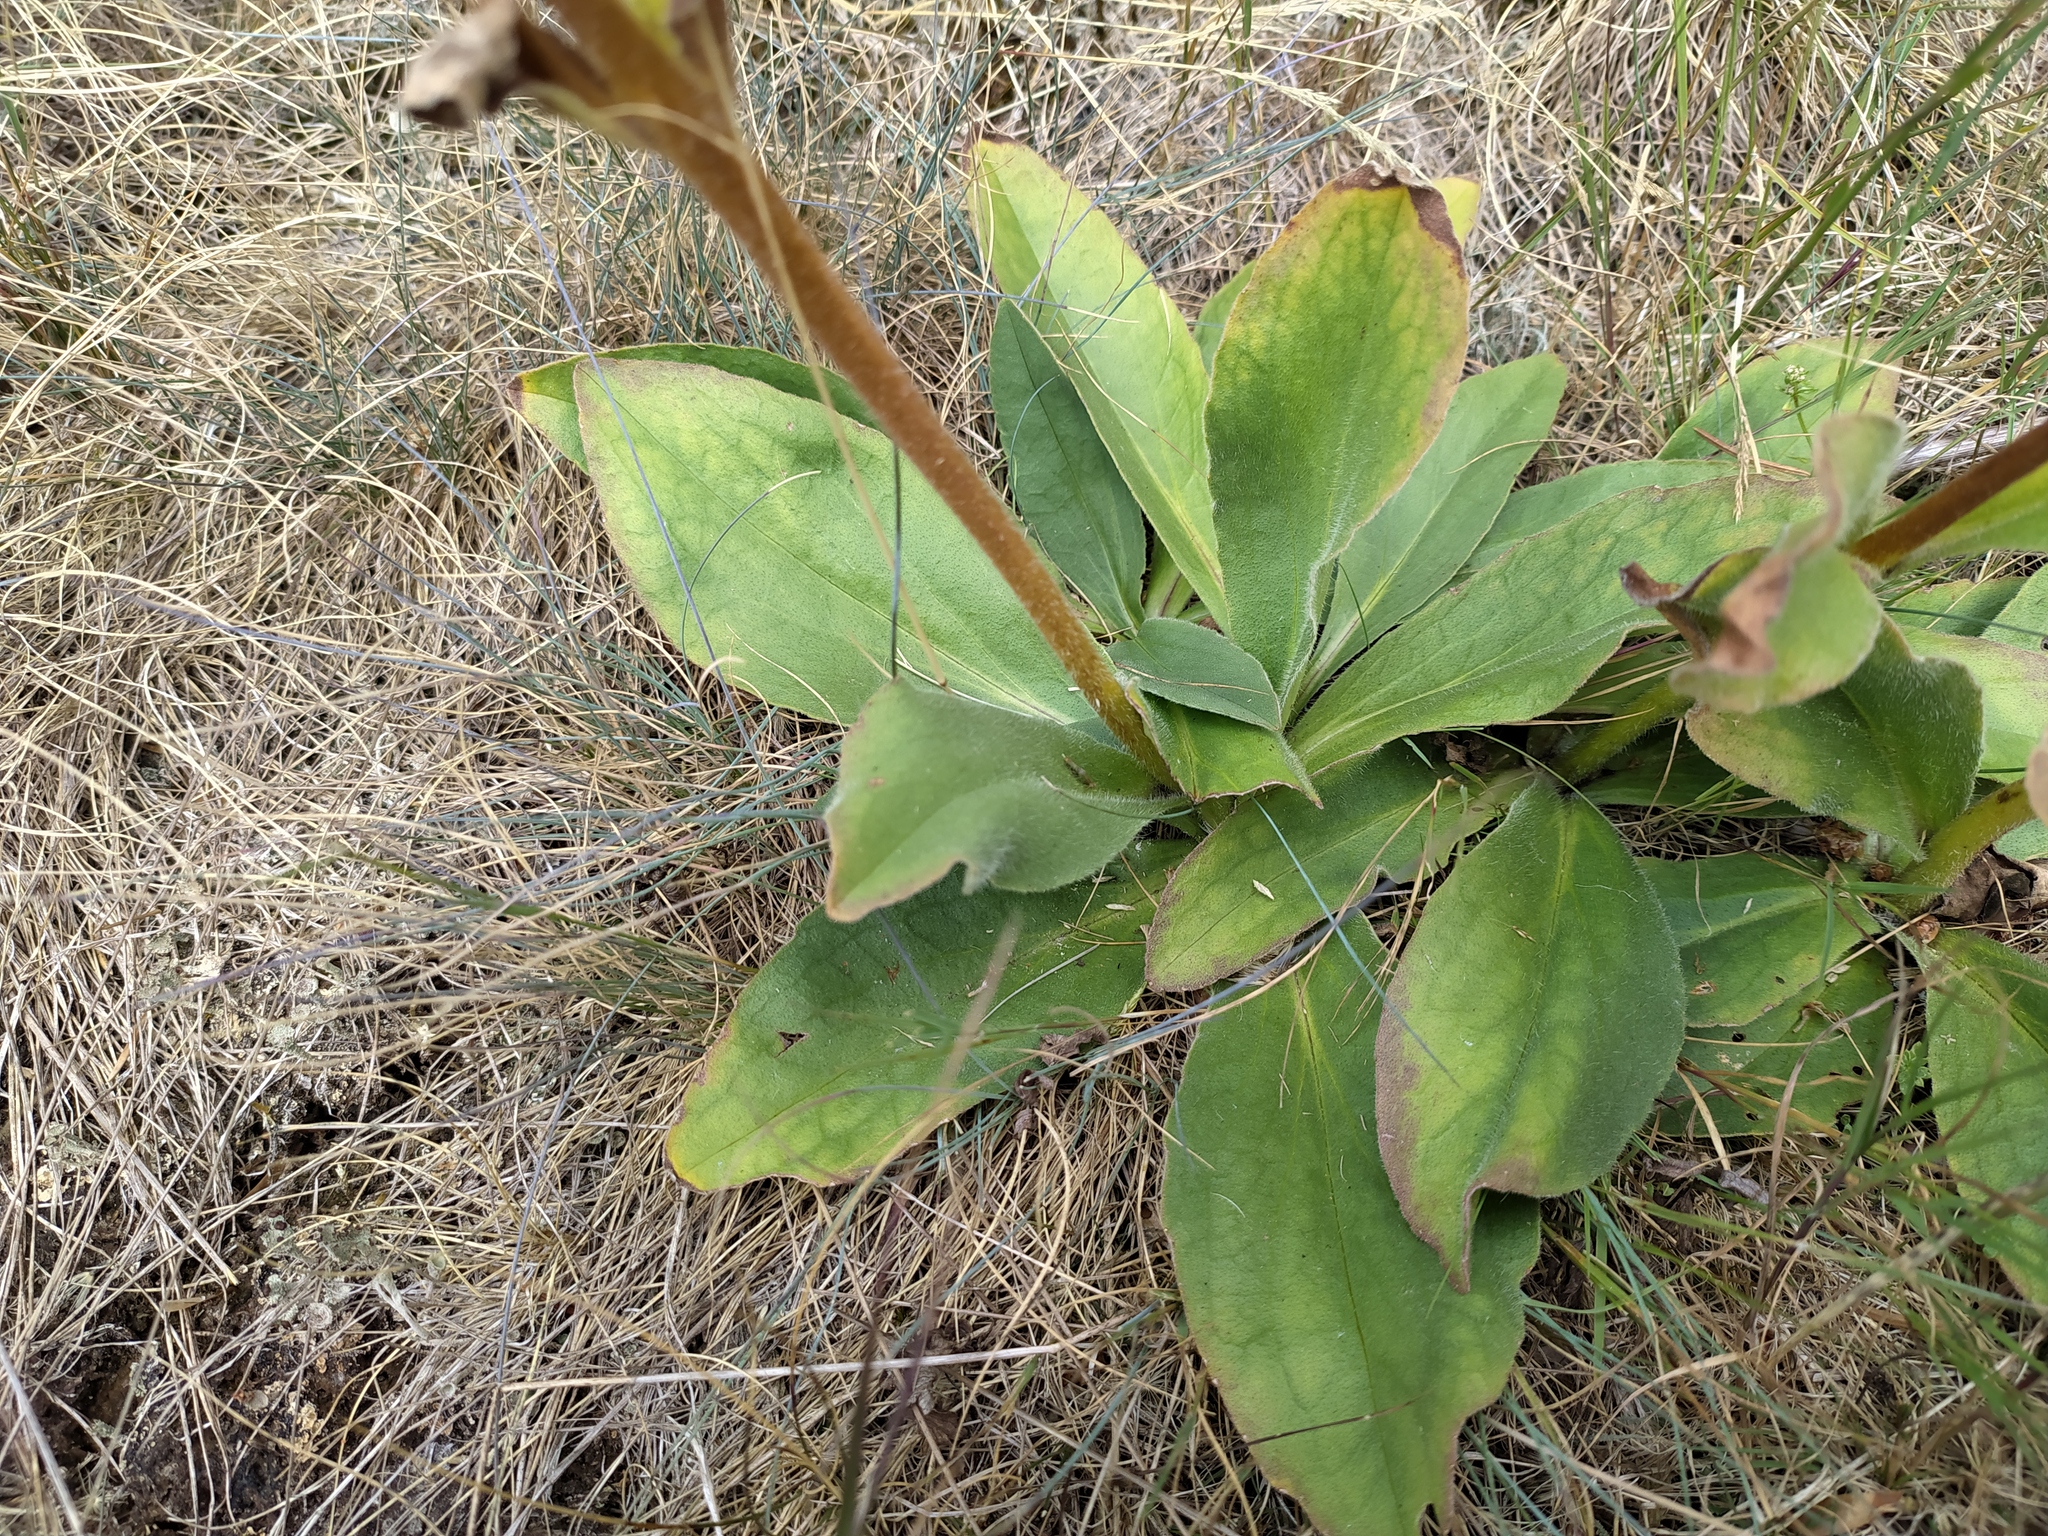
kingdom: Plantae
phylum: Tracheophyta
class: Magnoliopsida
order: Asterales
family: Asteraceae
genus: Arnica
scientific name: Arnica montana
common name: Leopard's bane
